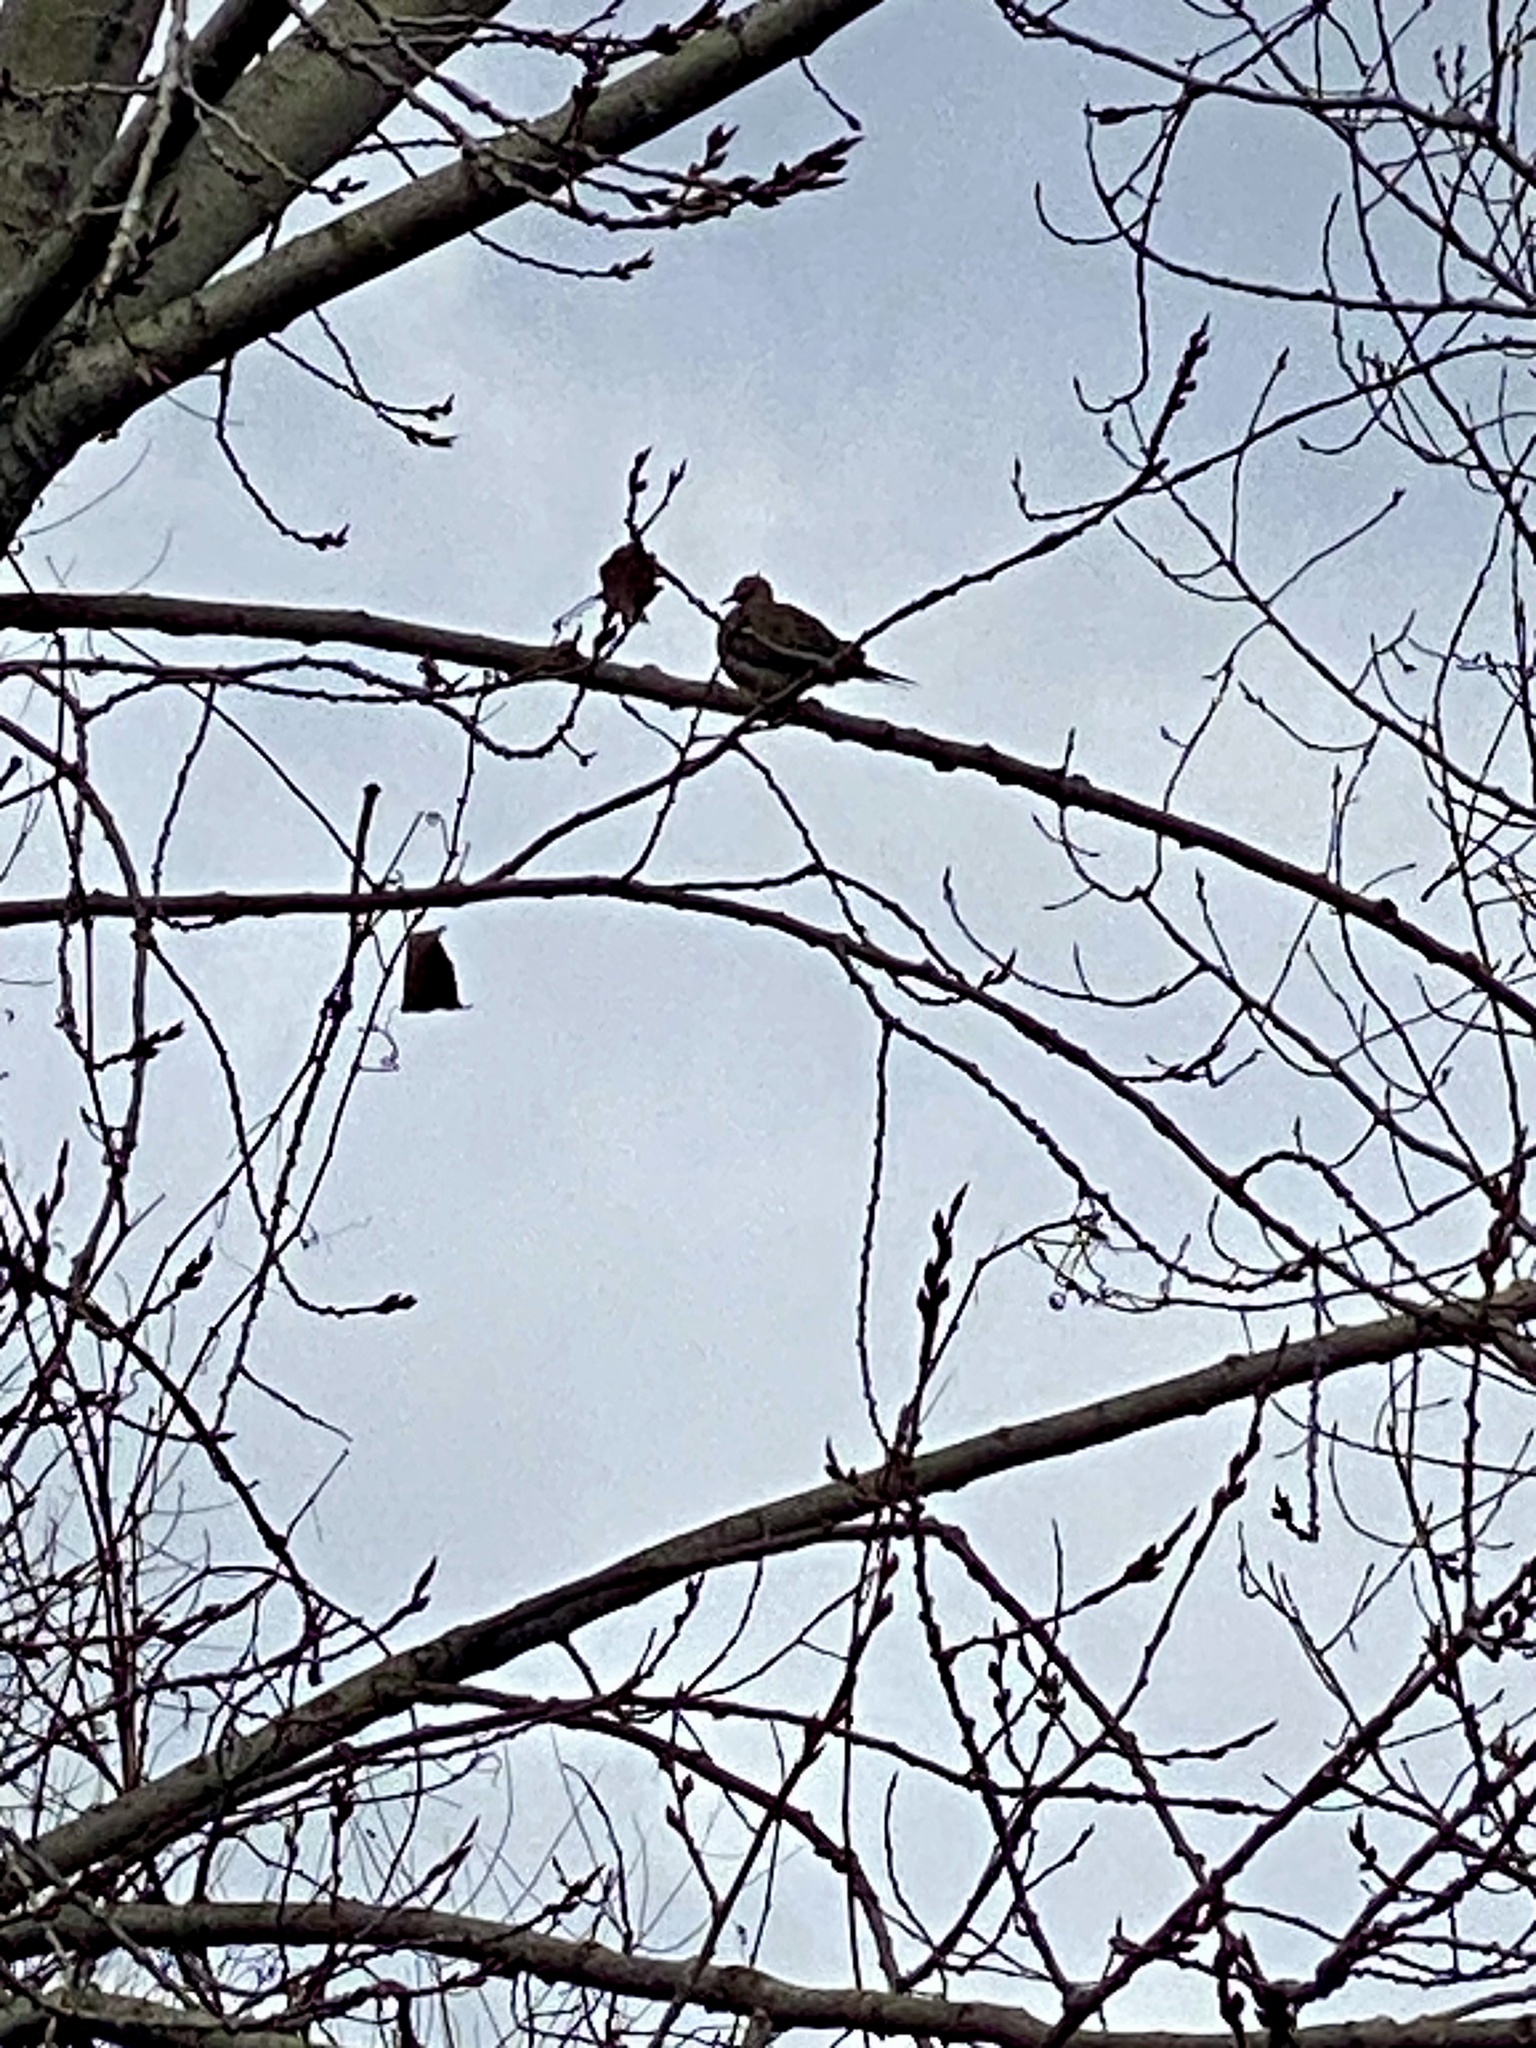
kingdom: Animalia
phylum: Chordata
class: Aves
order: Columbiformes
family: Columbidae
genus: Zenaida
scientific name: Zenaida macroura
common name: Mourning dove
